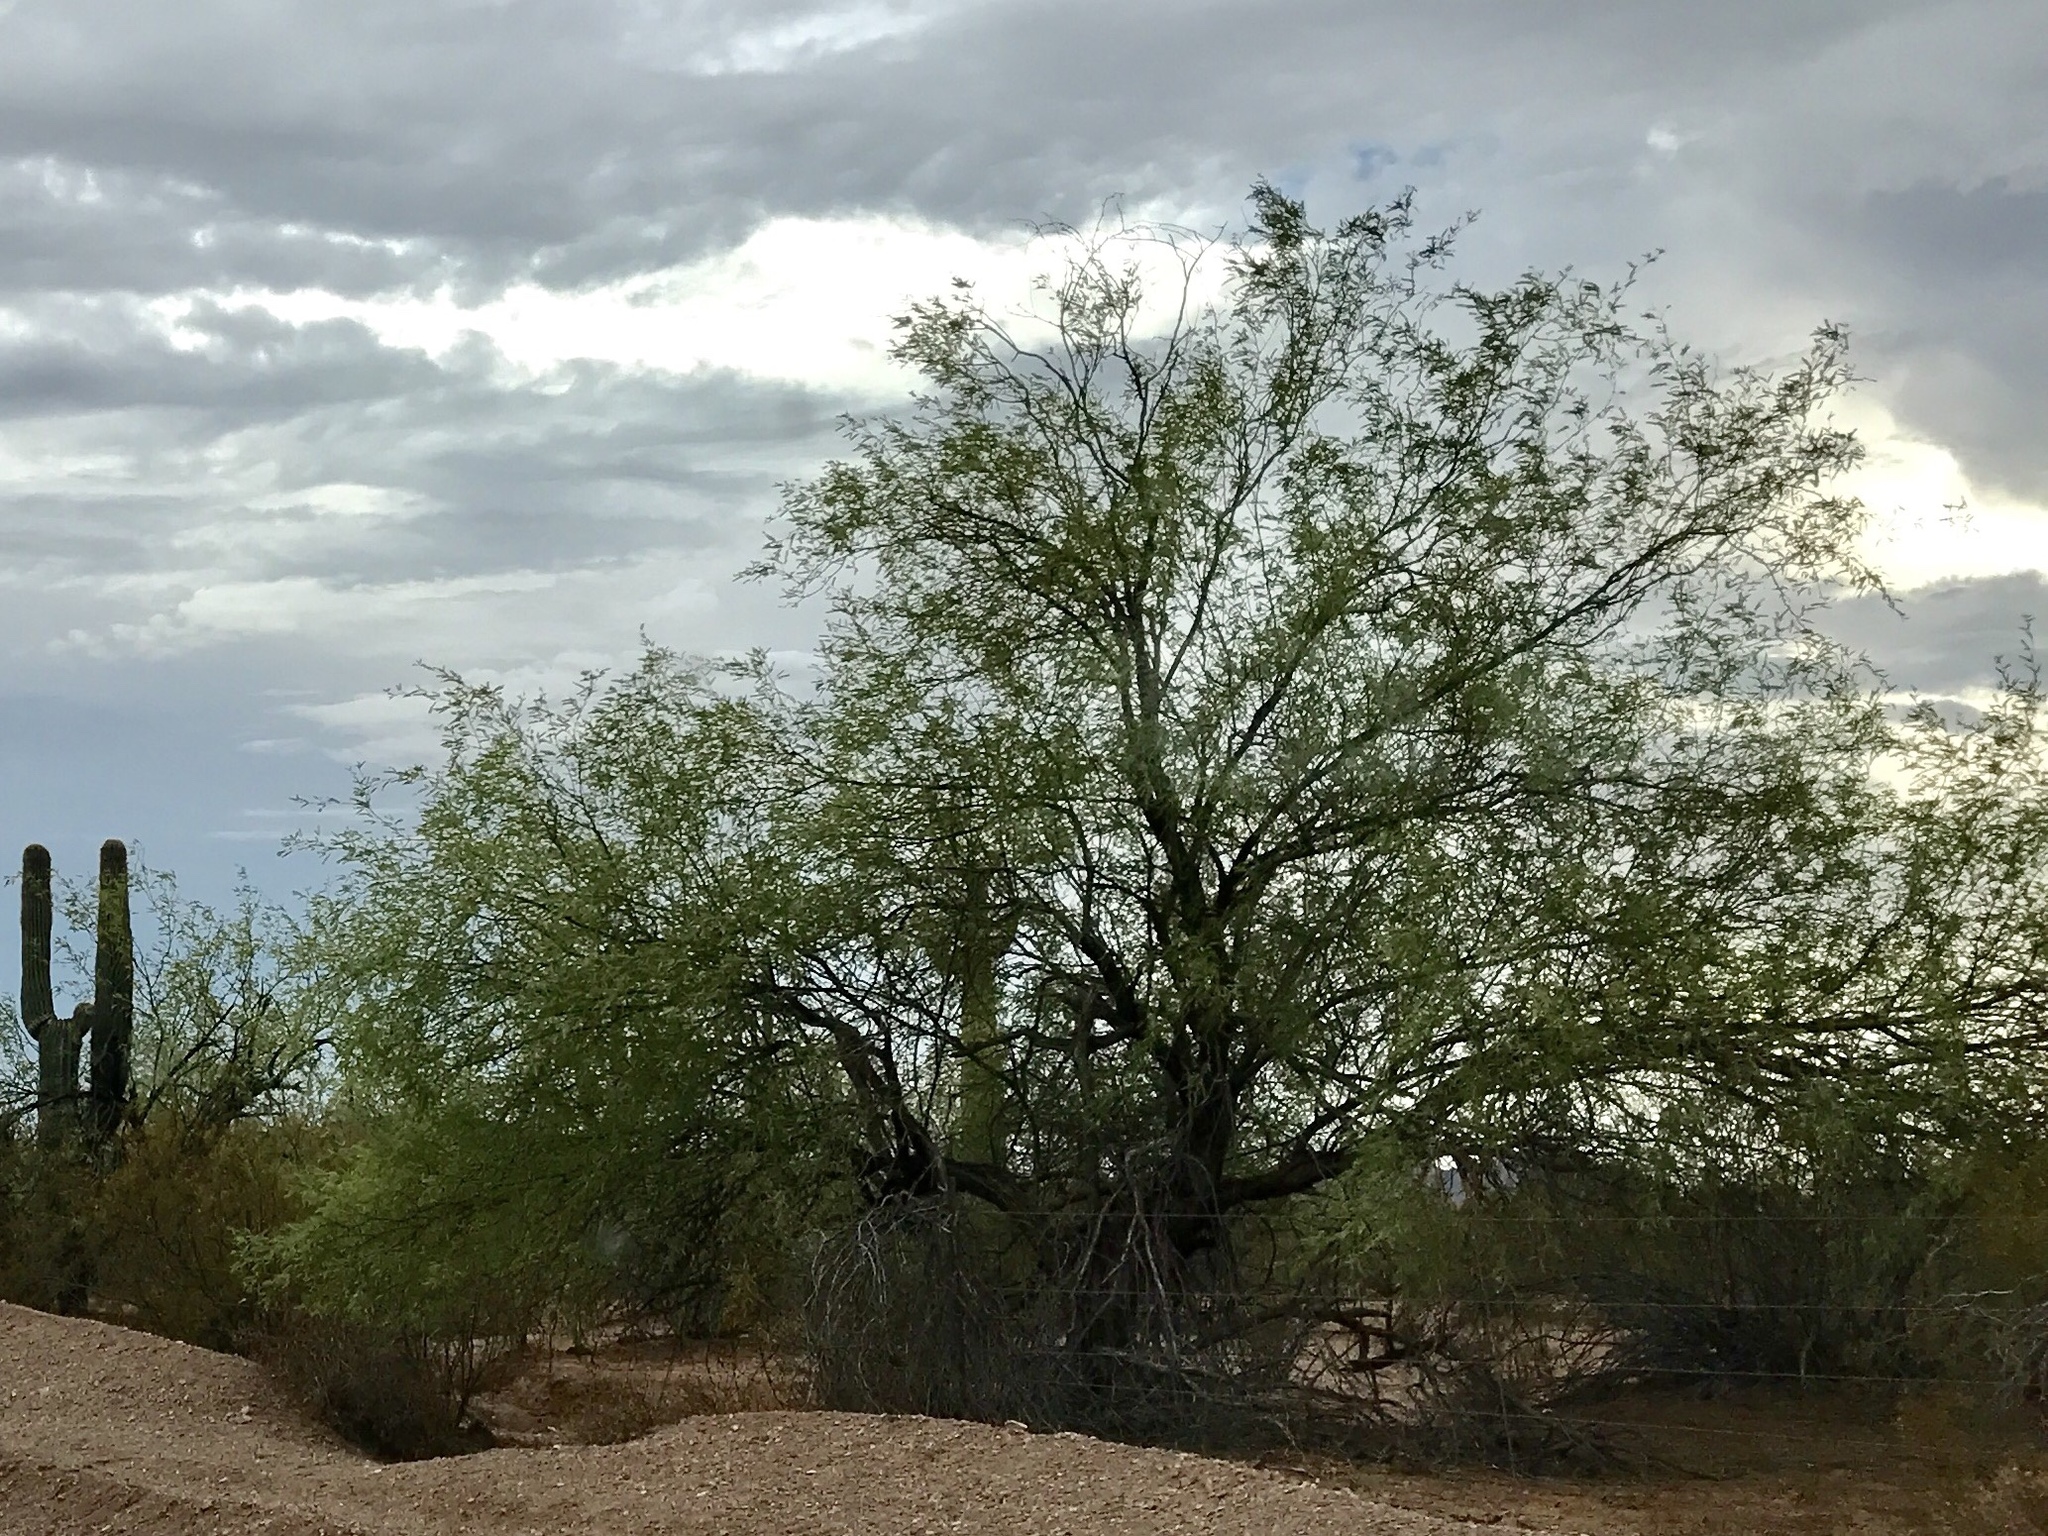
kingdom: Plantae
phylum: Tracheophyta
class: Magnoliopsida
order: Fabales
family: Fabaceae
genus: Prosopis
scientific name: Prosopis velutina
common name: Velvet mesquite
